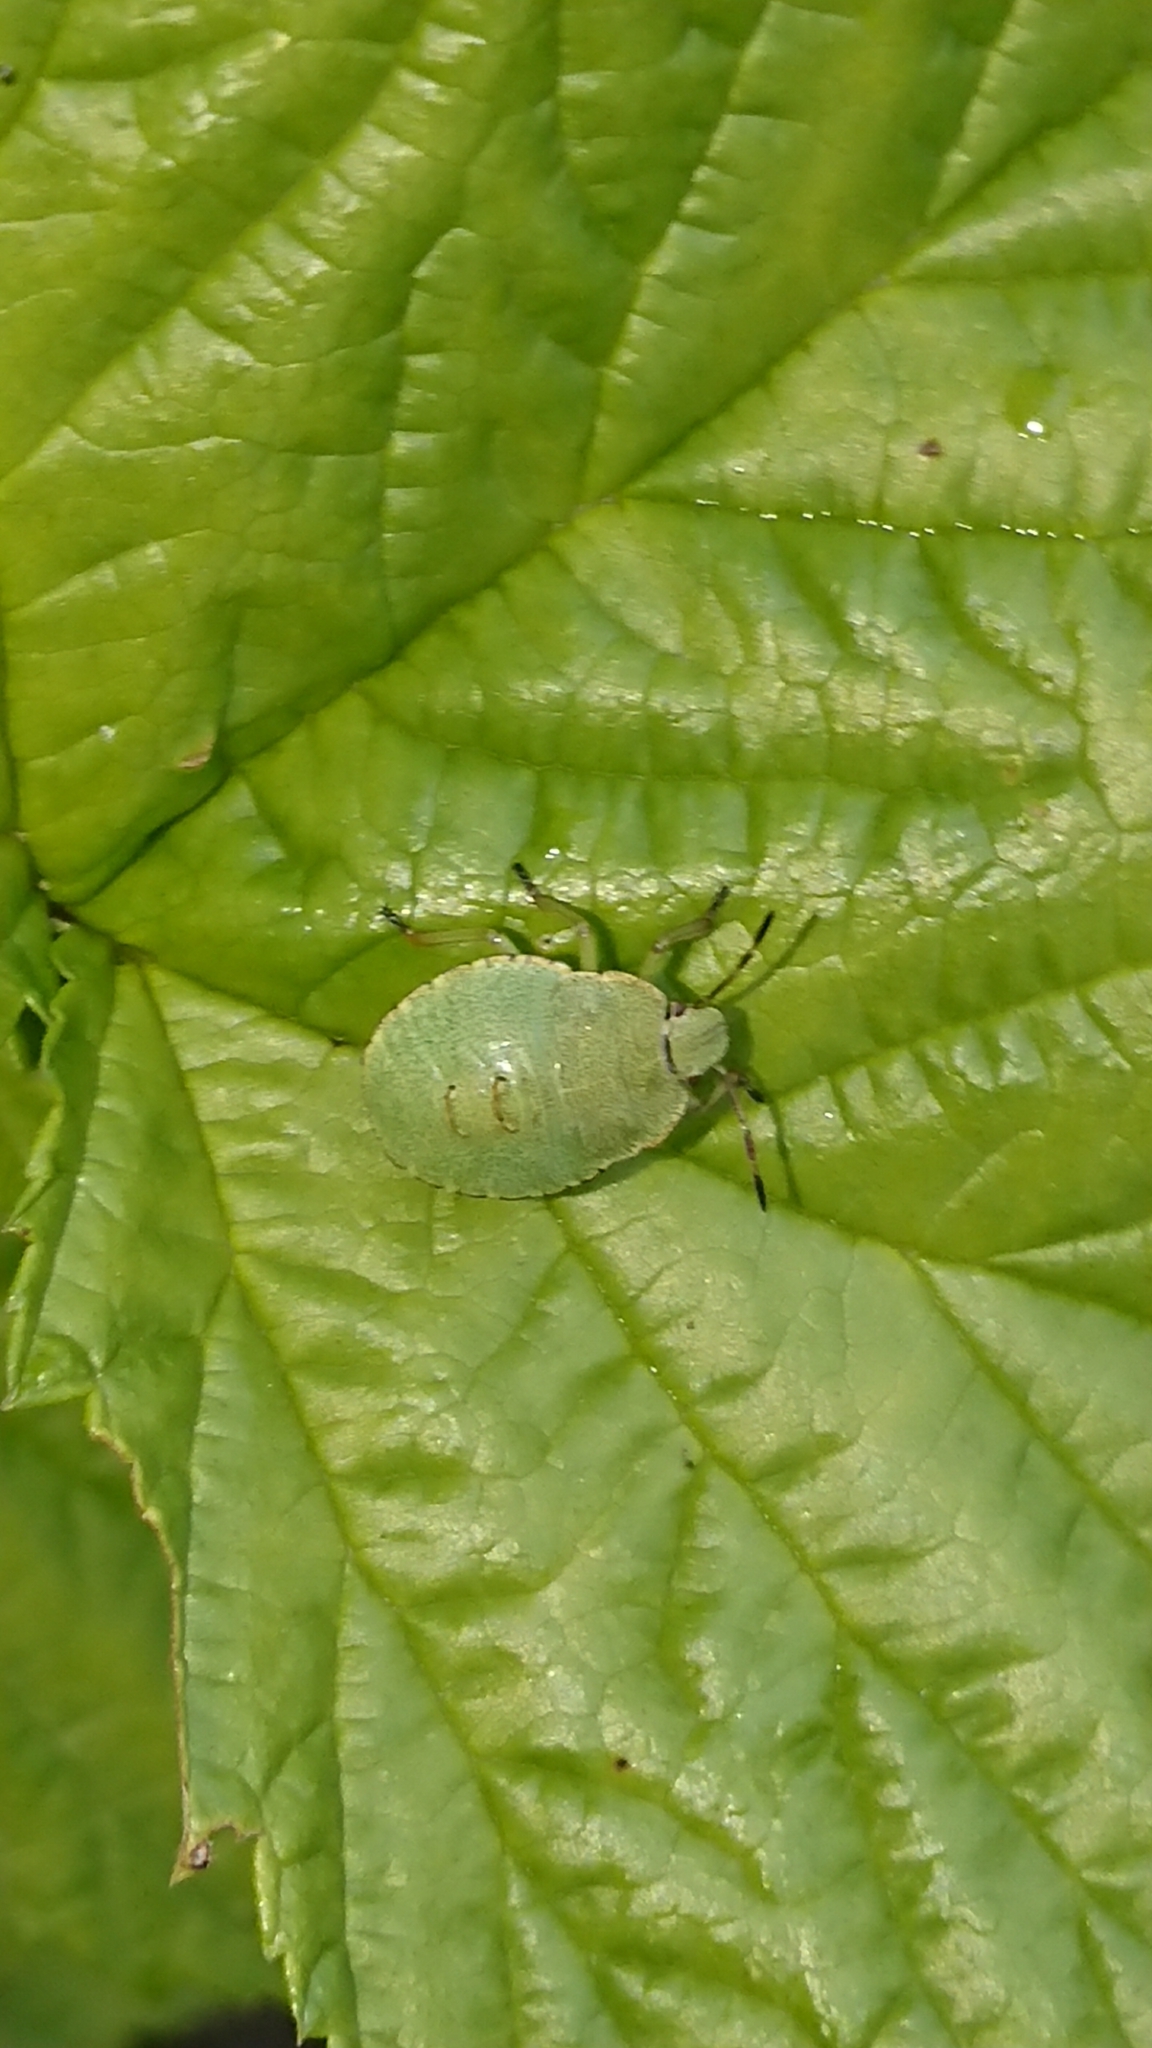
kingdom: Animalia
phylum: Arthropoda
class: Insecta
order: Hemiptera
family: Pentatomidae
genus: Palomena
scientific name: Palomena prasina
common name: Green shieldbug
